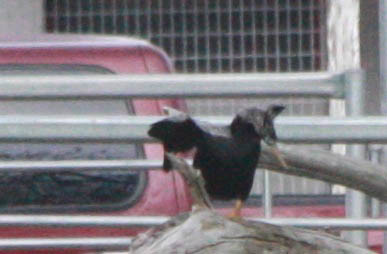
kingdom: Animalia
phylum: Chordata
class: Aves
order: Suliformes
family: Anhingidae
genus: Anhinga
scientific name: Anhinga anhinga
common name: Anhinga
